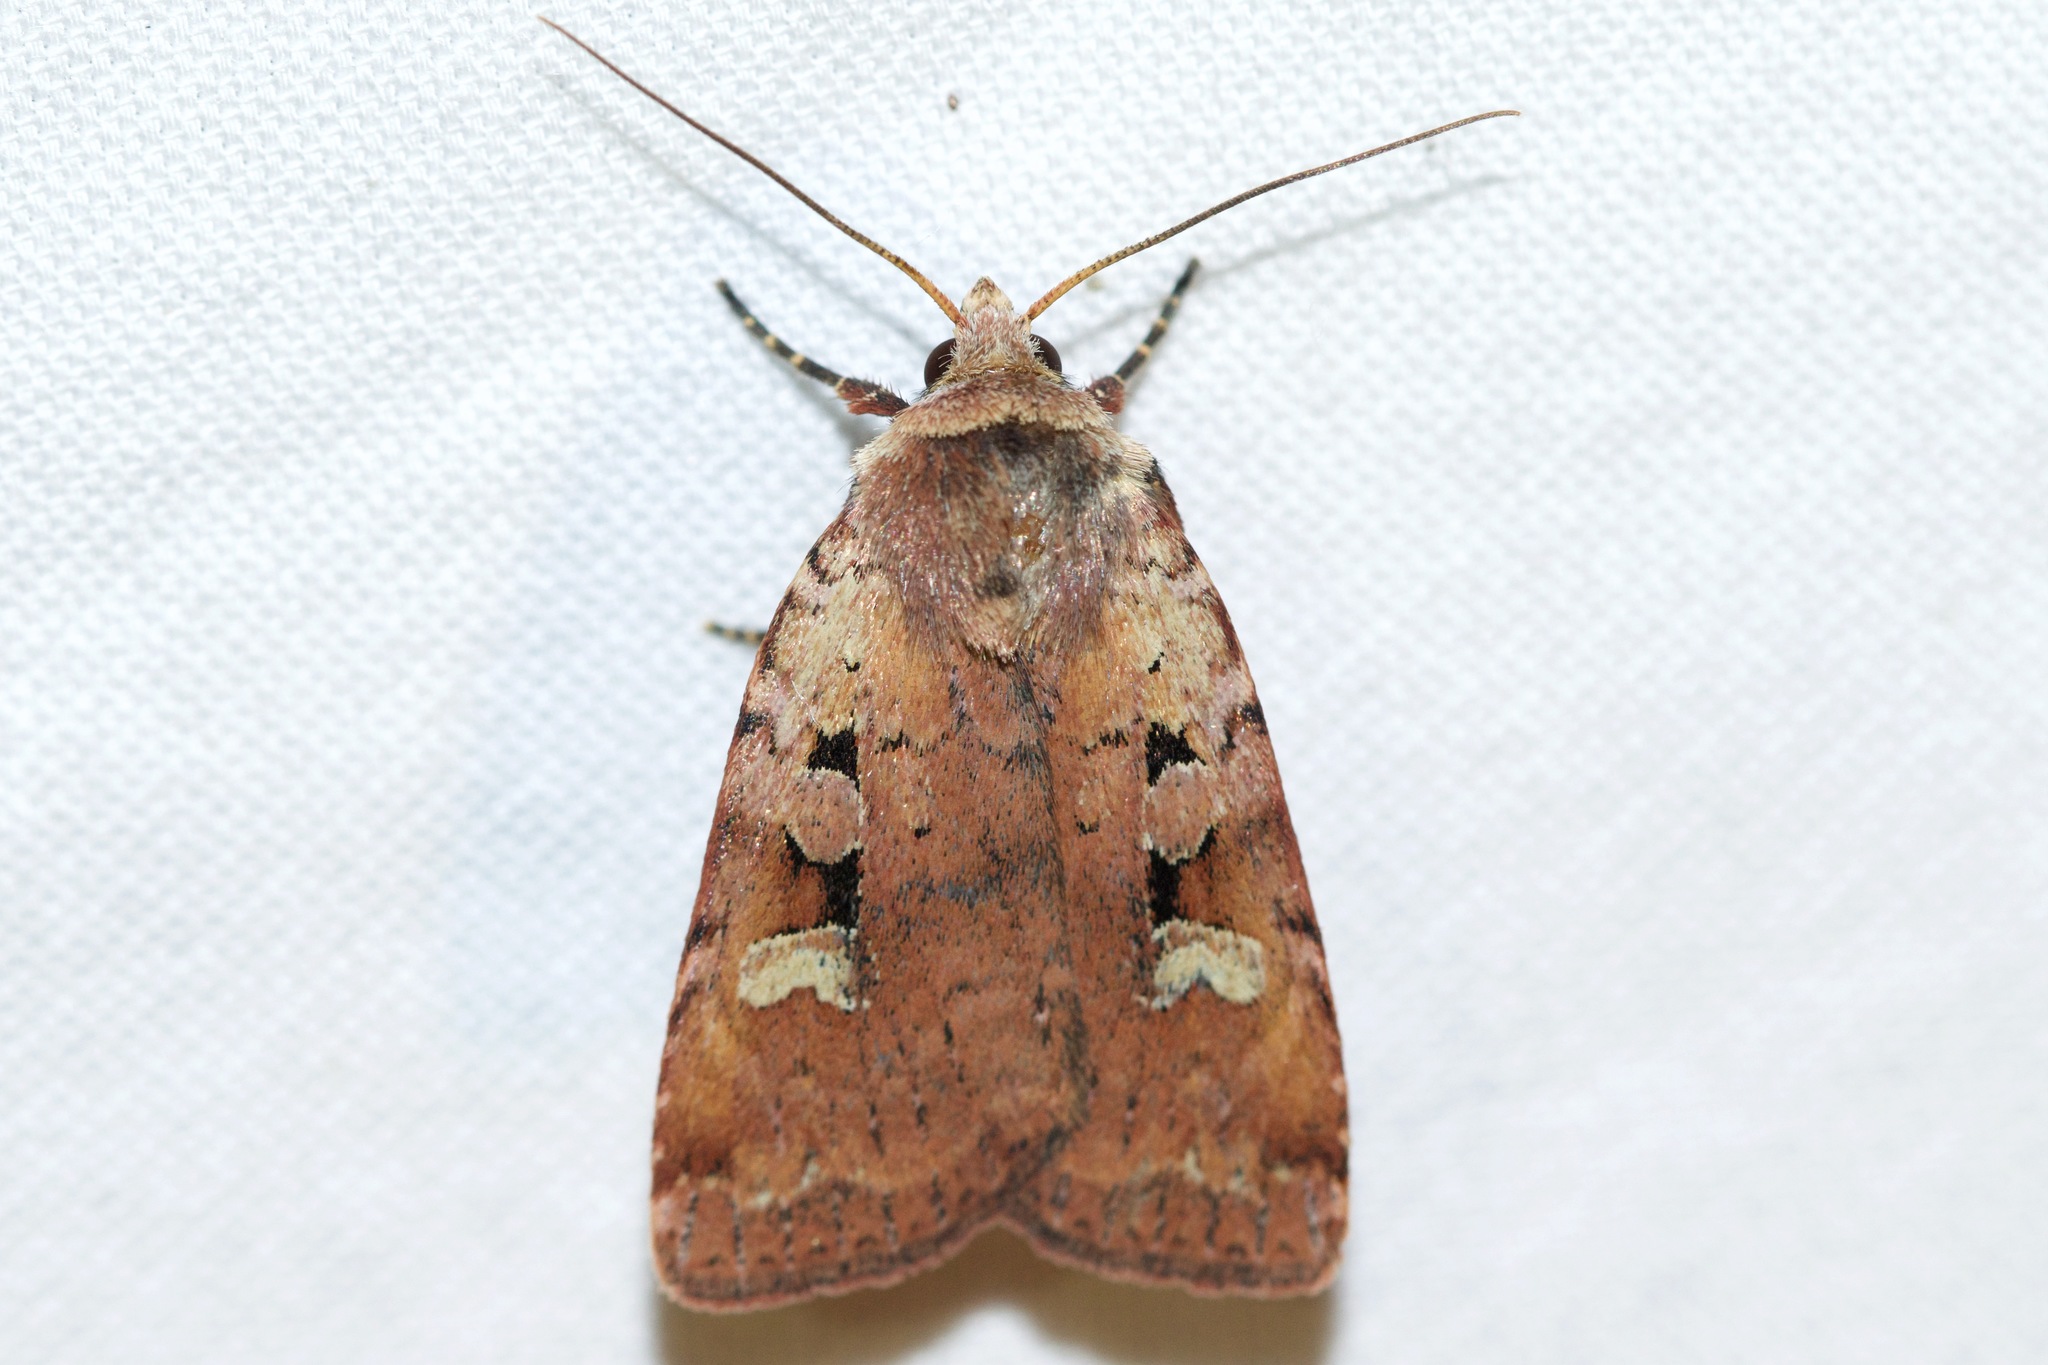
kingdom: Animalia
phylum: Arthropoda
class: Insecta
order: Lepidoptera
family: Noctuidae
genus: Diarsia
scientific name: Diarsia jucunda
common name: Smaller pinkish dart
